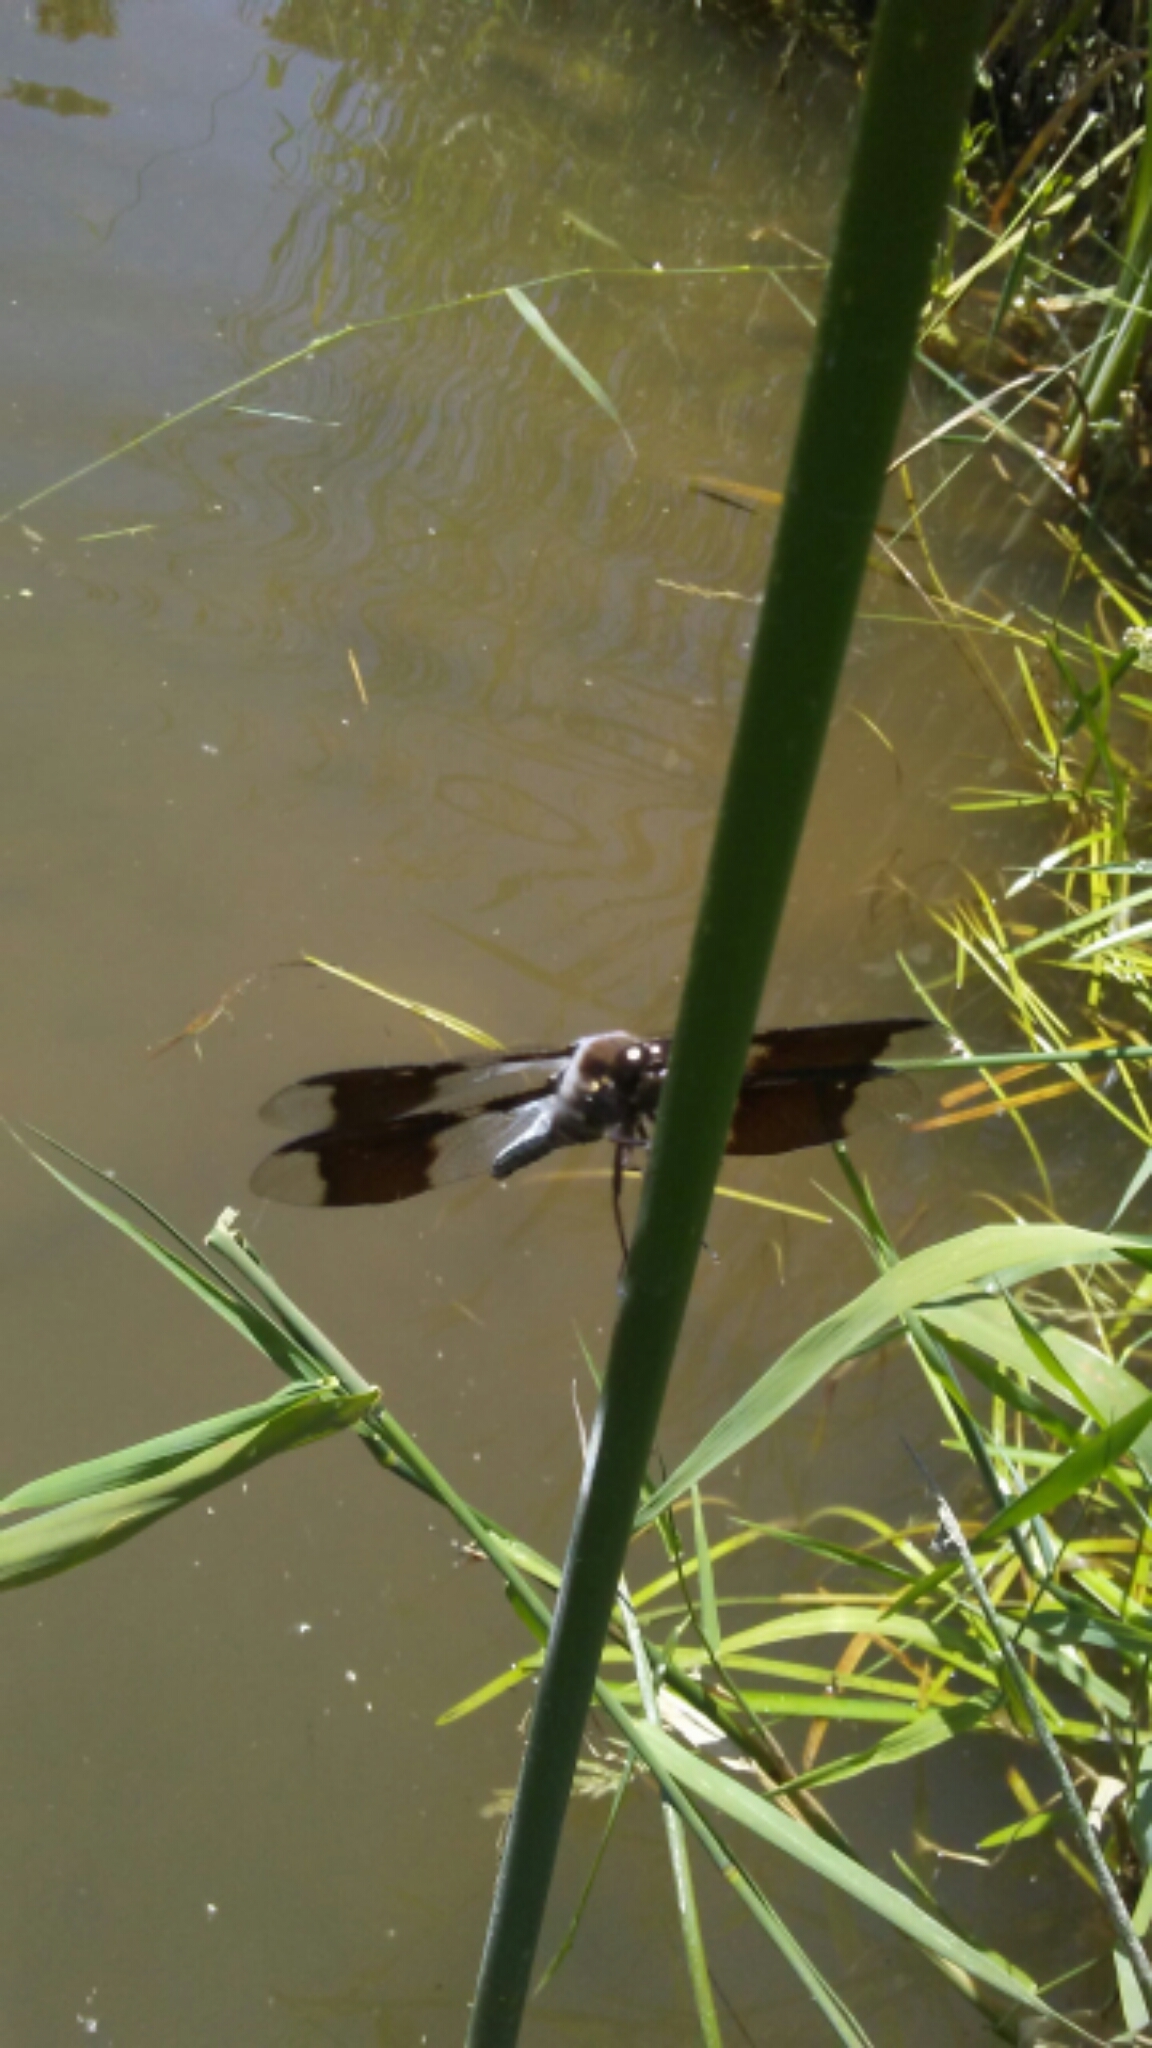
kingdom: Animalia
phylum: Arthropoda
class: Insecta
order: Odonata
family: Libellulidae
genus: Plathemis
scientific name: Plathemis lydia
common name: Common whitetail
